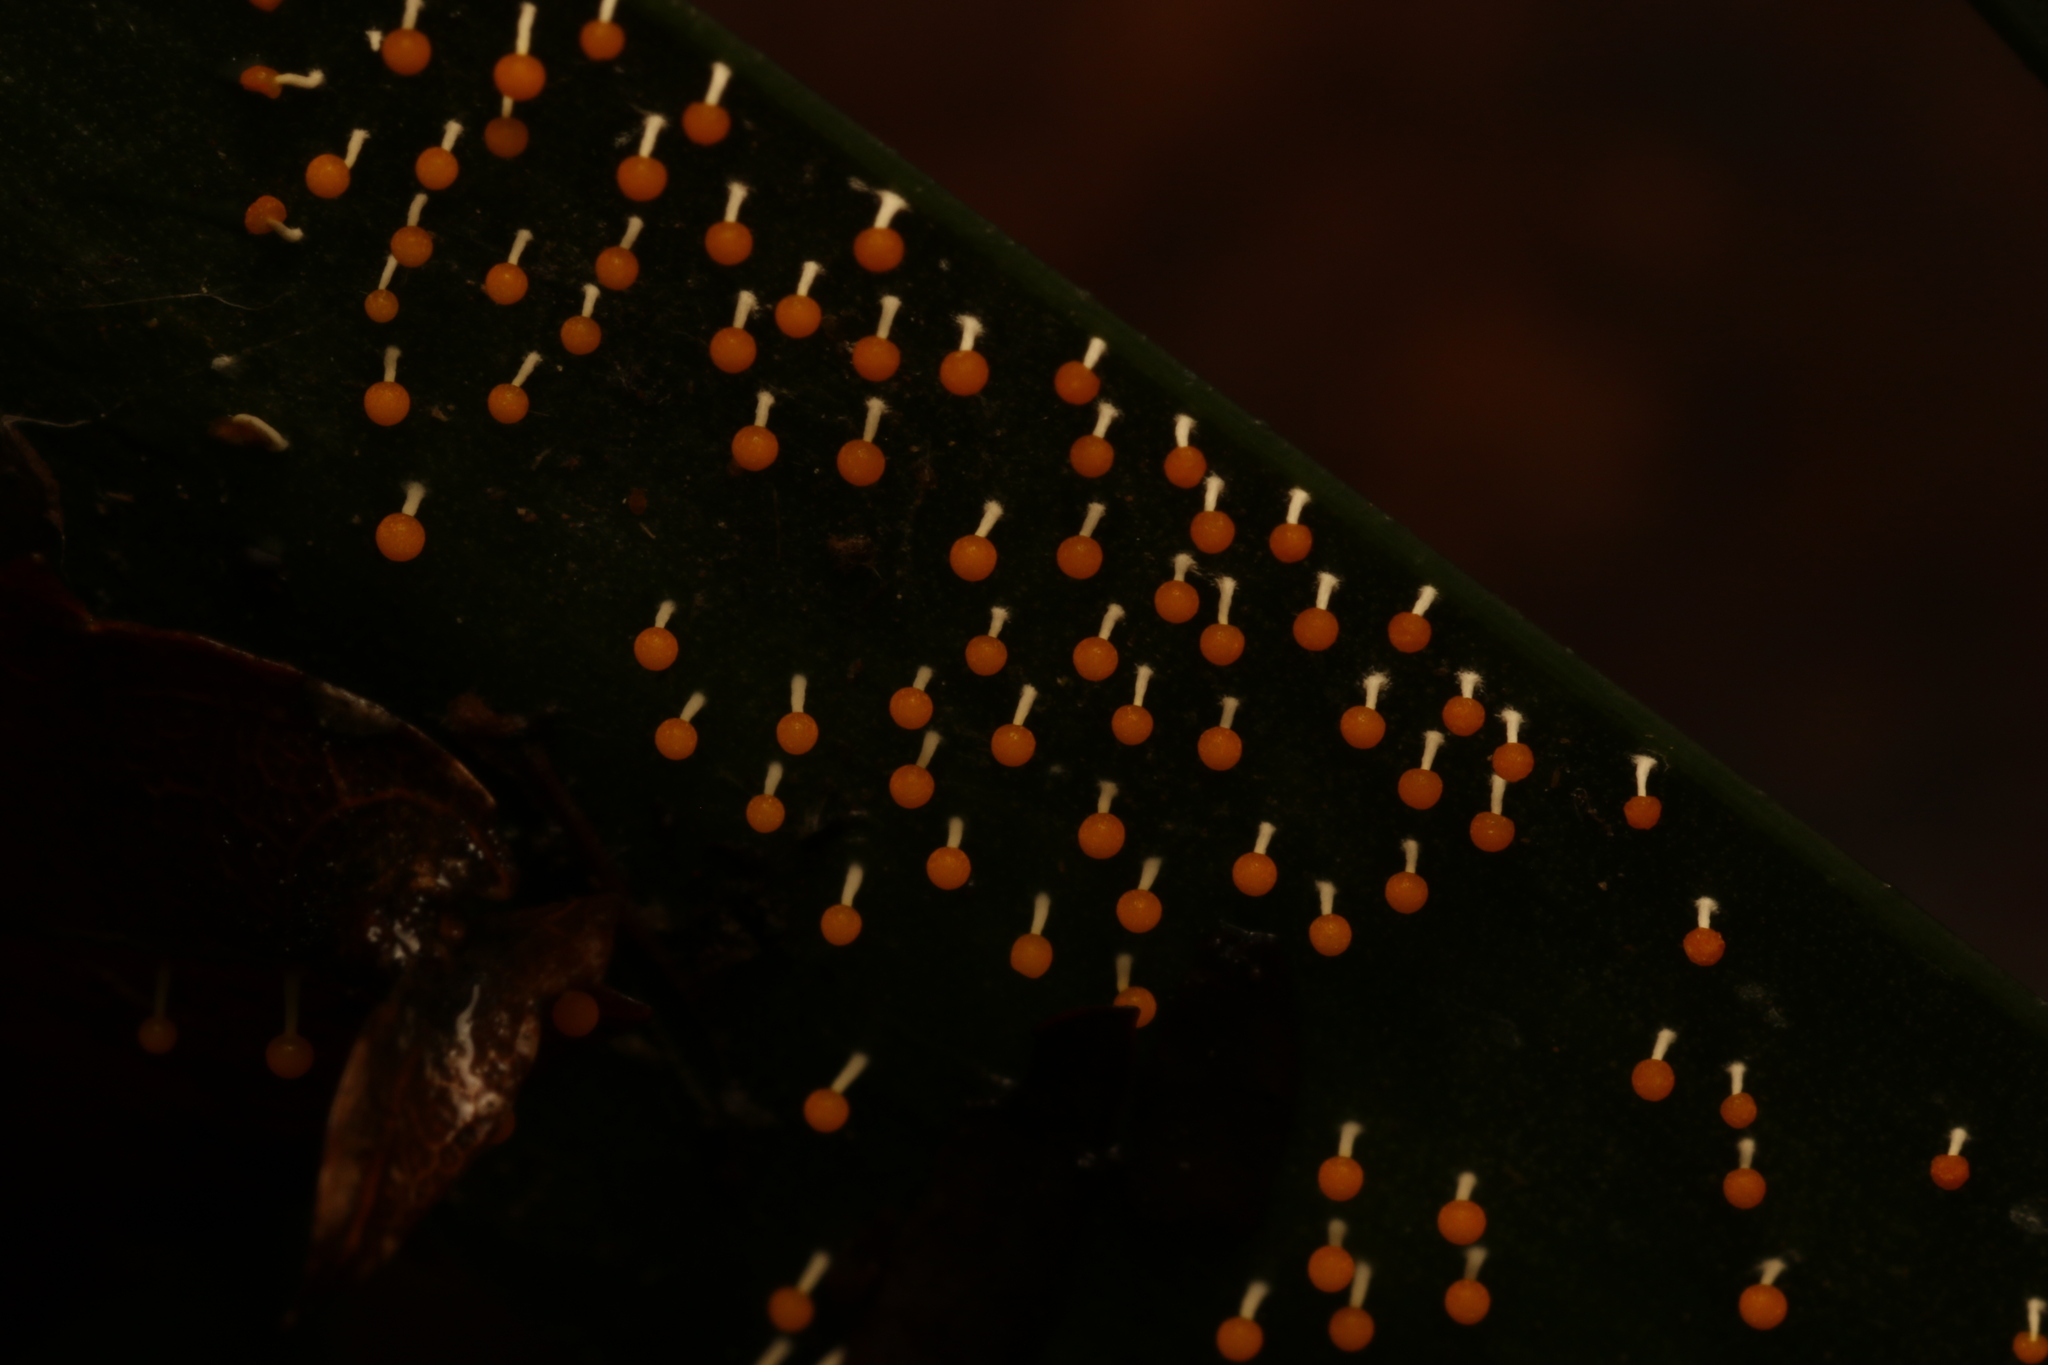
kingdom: Protozoa
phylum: Mycetozoa
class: Myxomycetes
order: Physarales
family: Physaraceae
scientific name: Physaraceae
